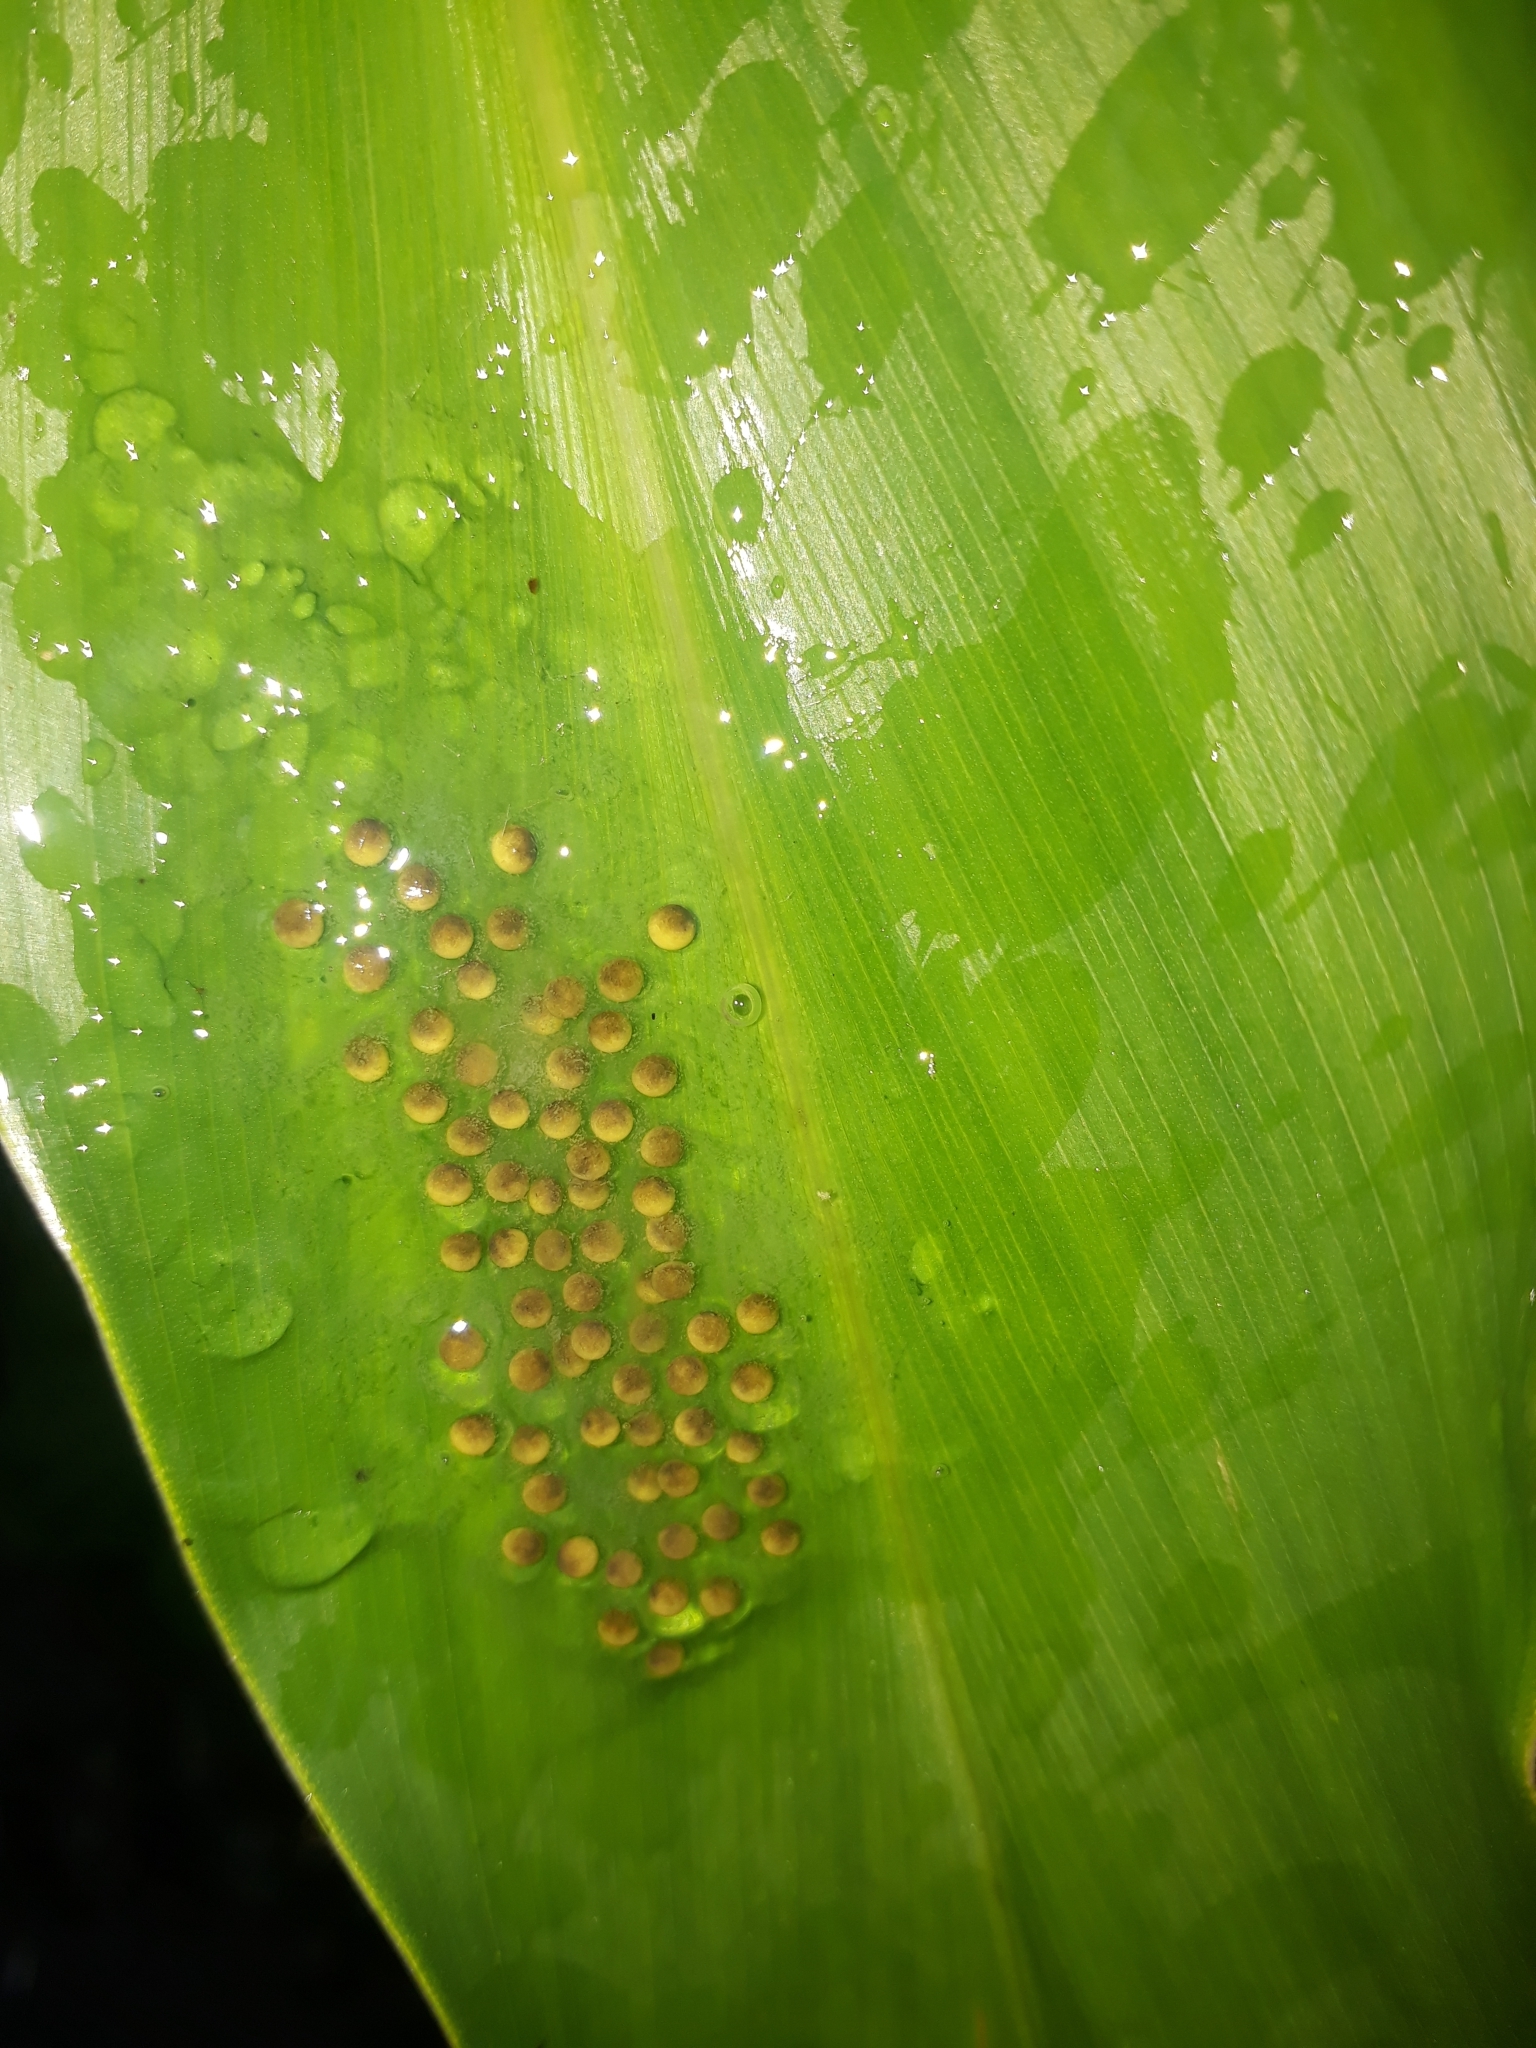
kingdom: Animalia
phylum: Chordata
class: Amphibia
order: Anura
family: Centrolenidae
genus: Nymphargus
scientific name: Nymphargus grandisonae
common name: Rana de cristal sarampiona
